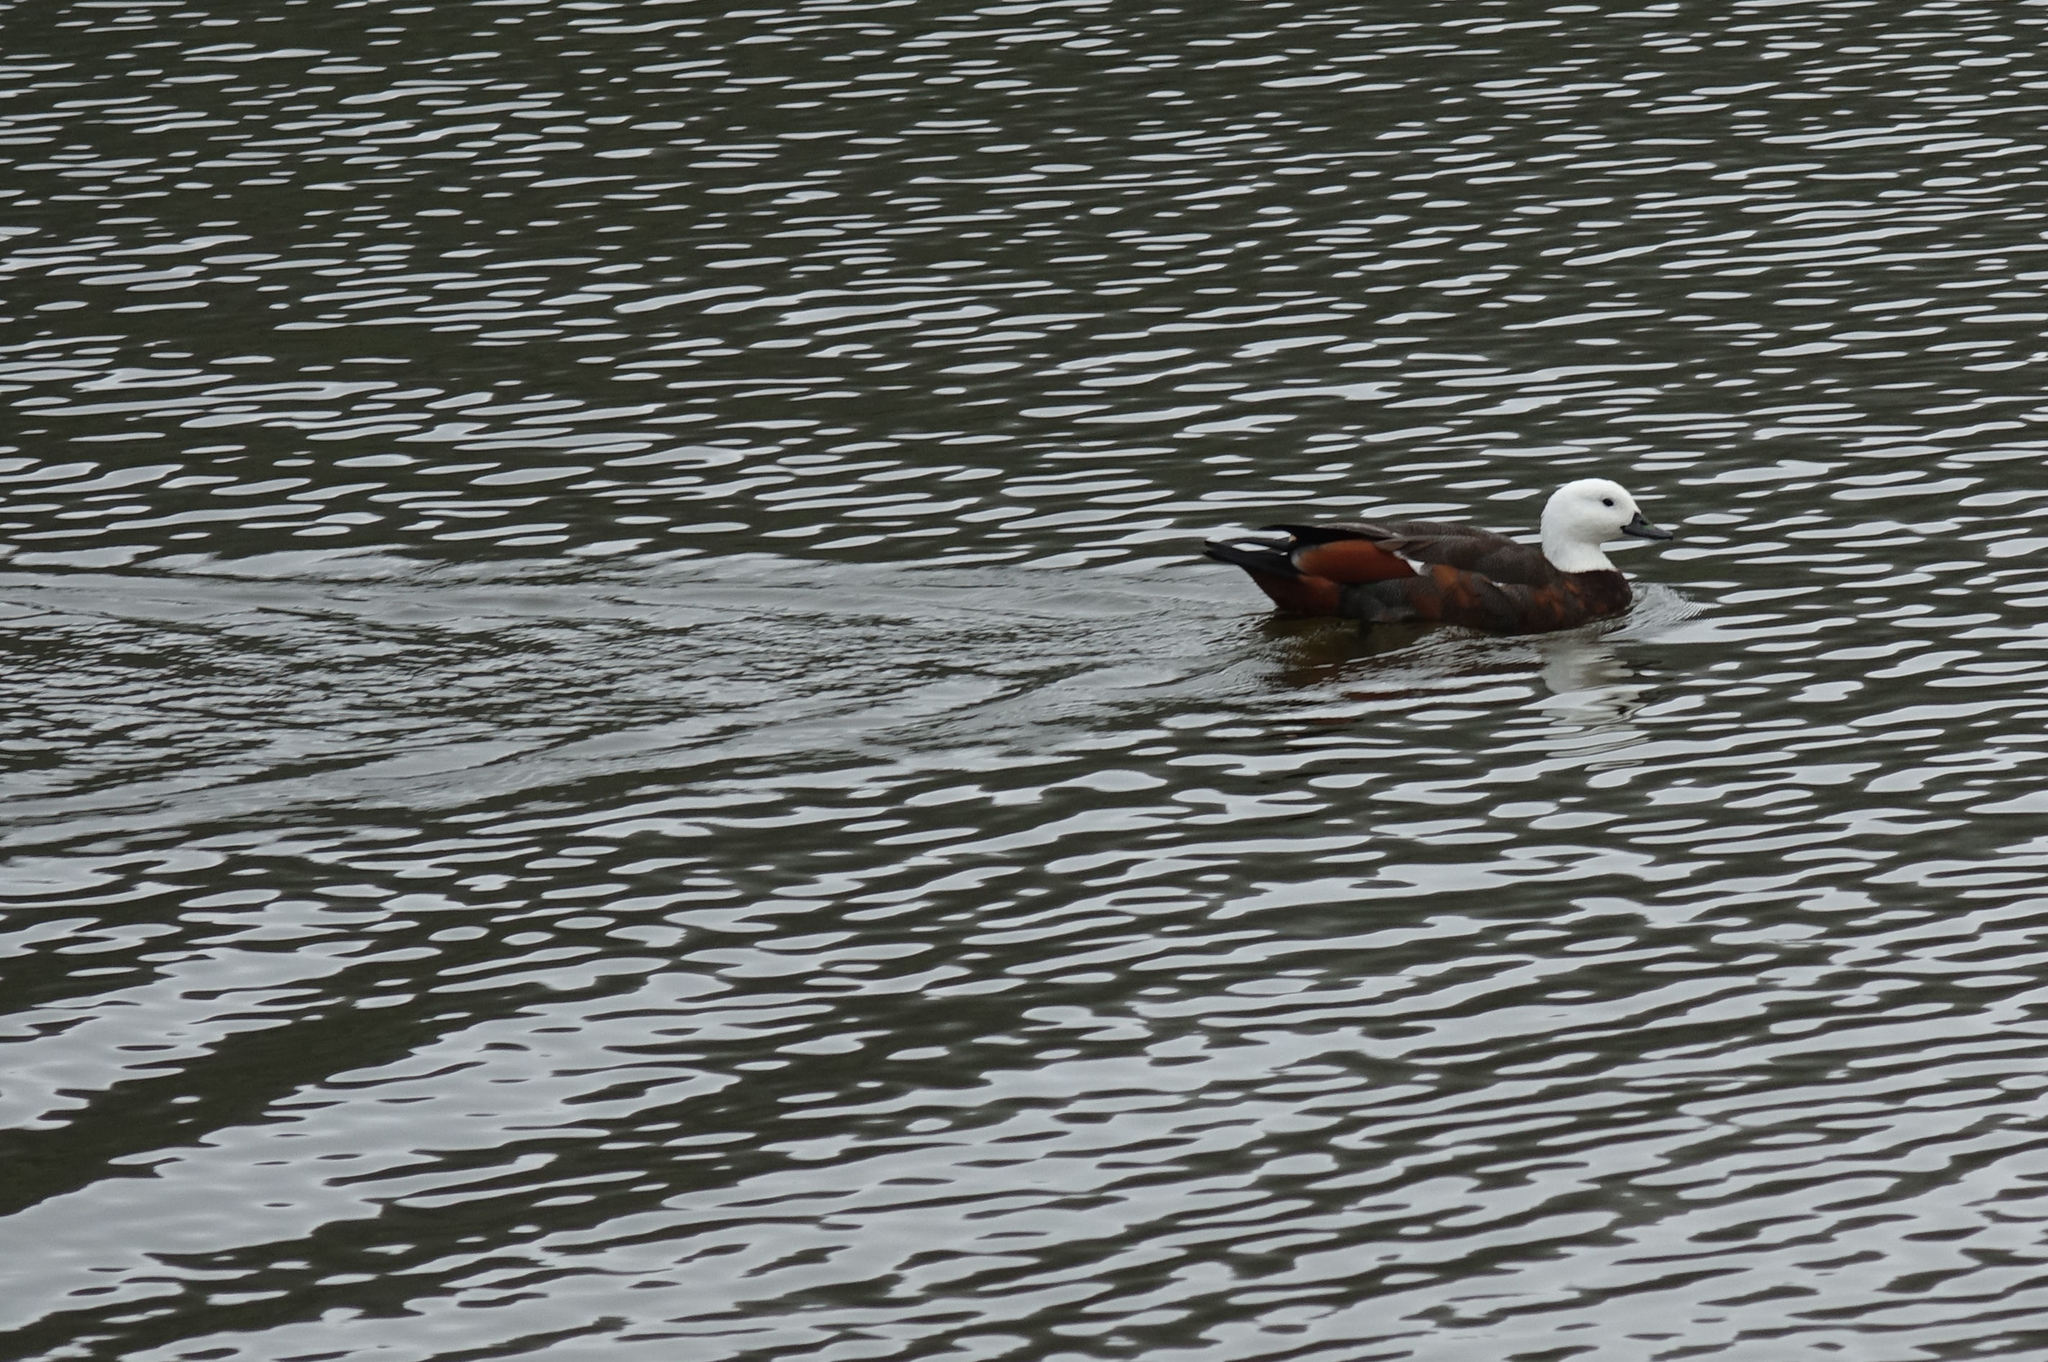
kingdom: Animalia
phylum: Chordata
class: Aves
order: Anseriformes
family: Anatidae
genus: Tadorna
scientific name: Tadorna variegata
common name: Paradise shelduck
